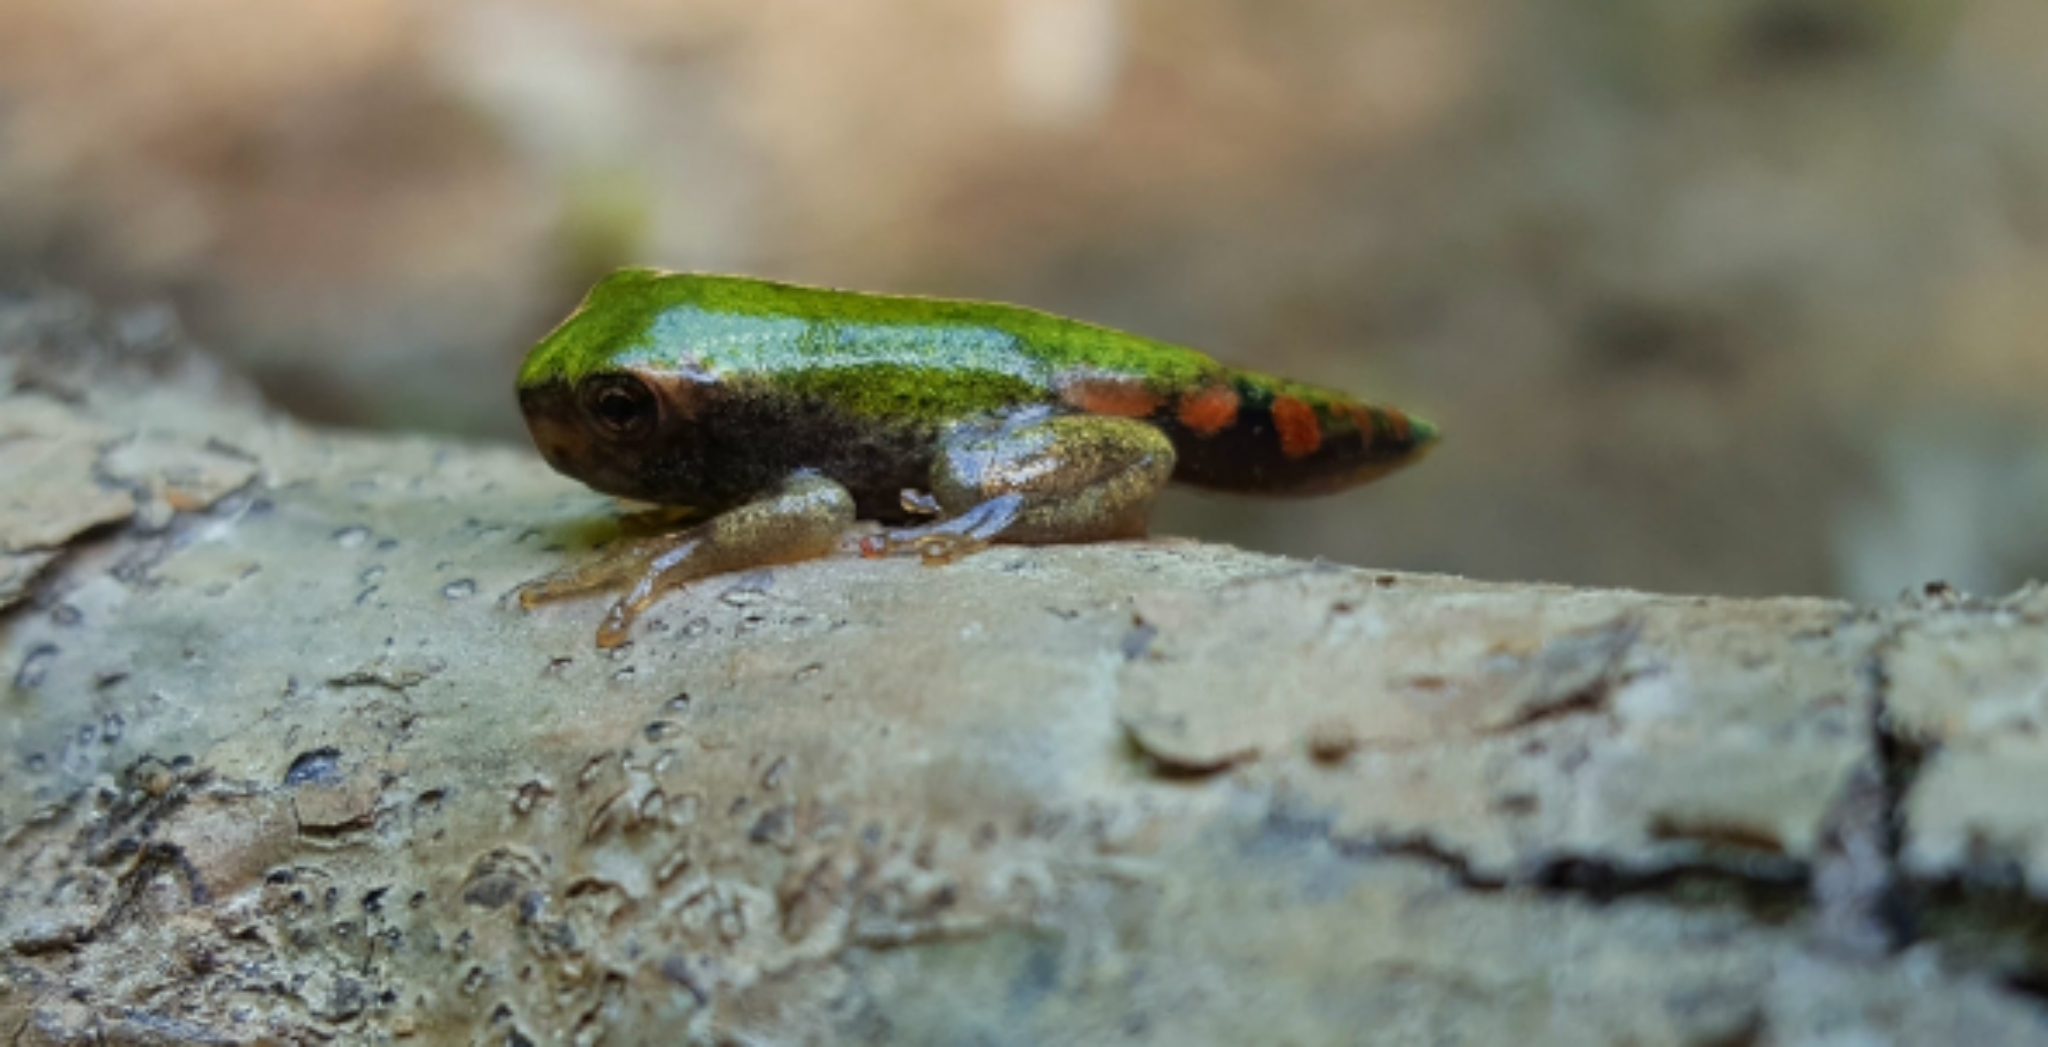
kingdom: Animalia
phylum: Chordata
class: Amphibia
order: Anura
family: Hylidae
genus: Dryophytes
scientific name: Dryophytes avivoca
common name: Bird-voiced treefrog
